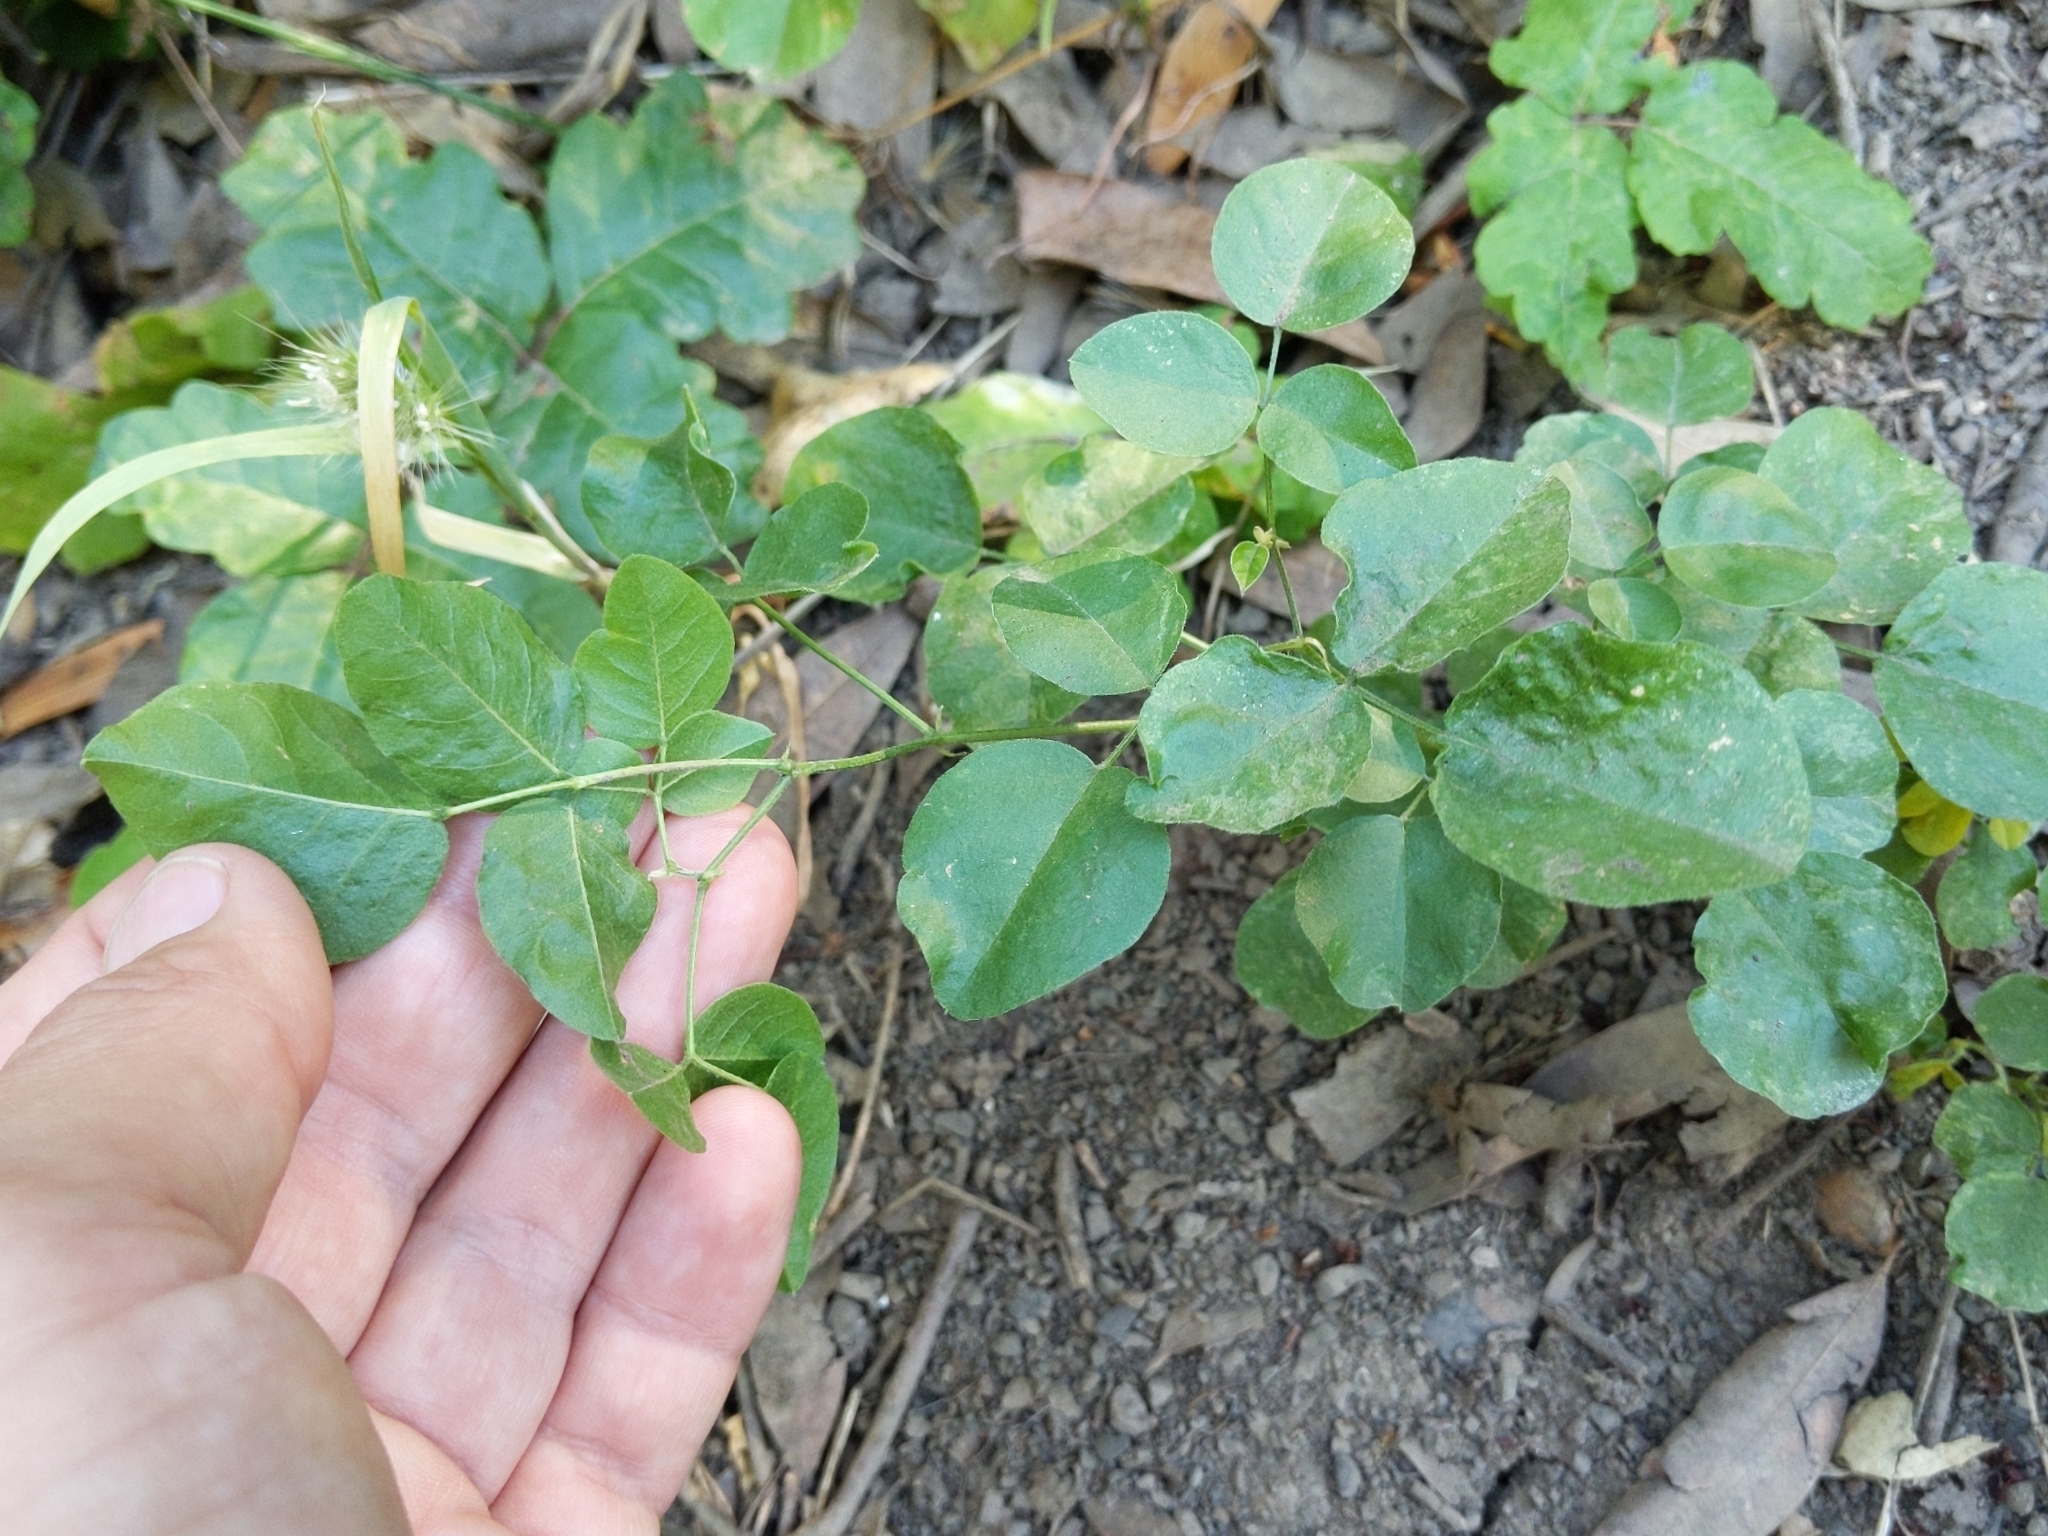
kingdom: Plantae
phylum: Tracheophyta
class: Magnoliopsida
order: Fabales
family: Fabaceae
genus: Rupertia
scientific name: Rupertia physodes
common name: California-tea
